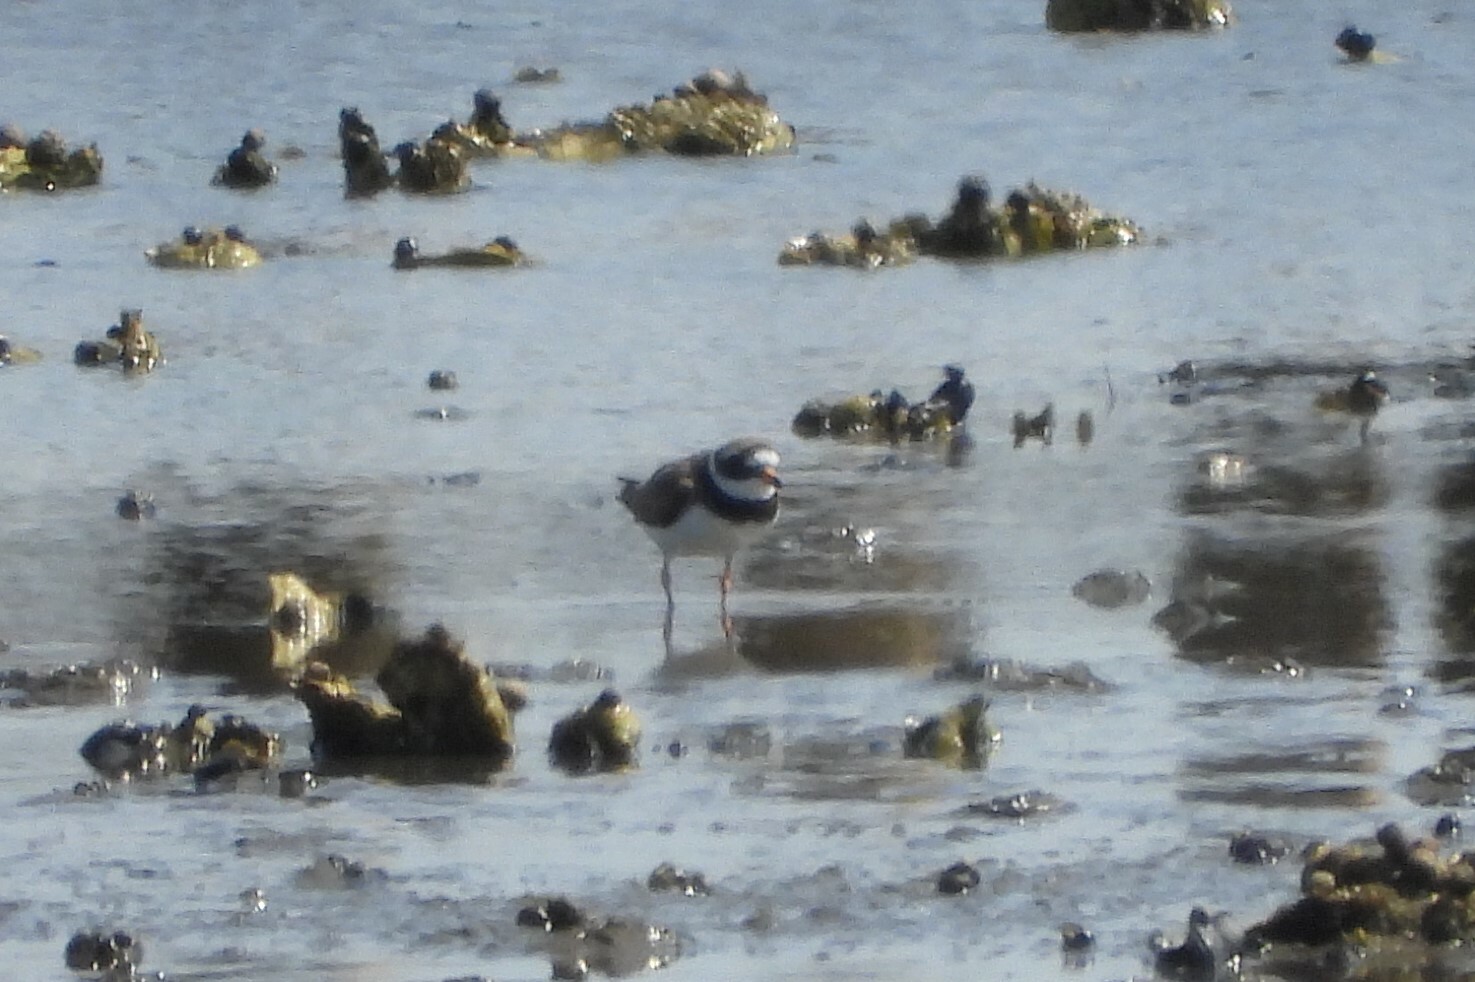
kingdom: Animalia
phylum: Chordata
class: Aves
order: Charadriiformes
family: Charadriidae
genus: Charadrius
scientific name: Charadrius hiaticula
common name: Common ringed plover
